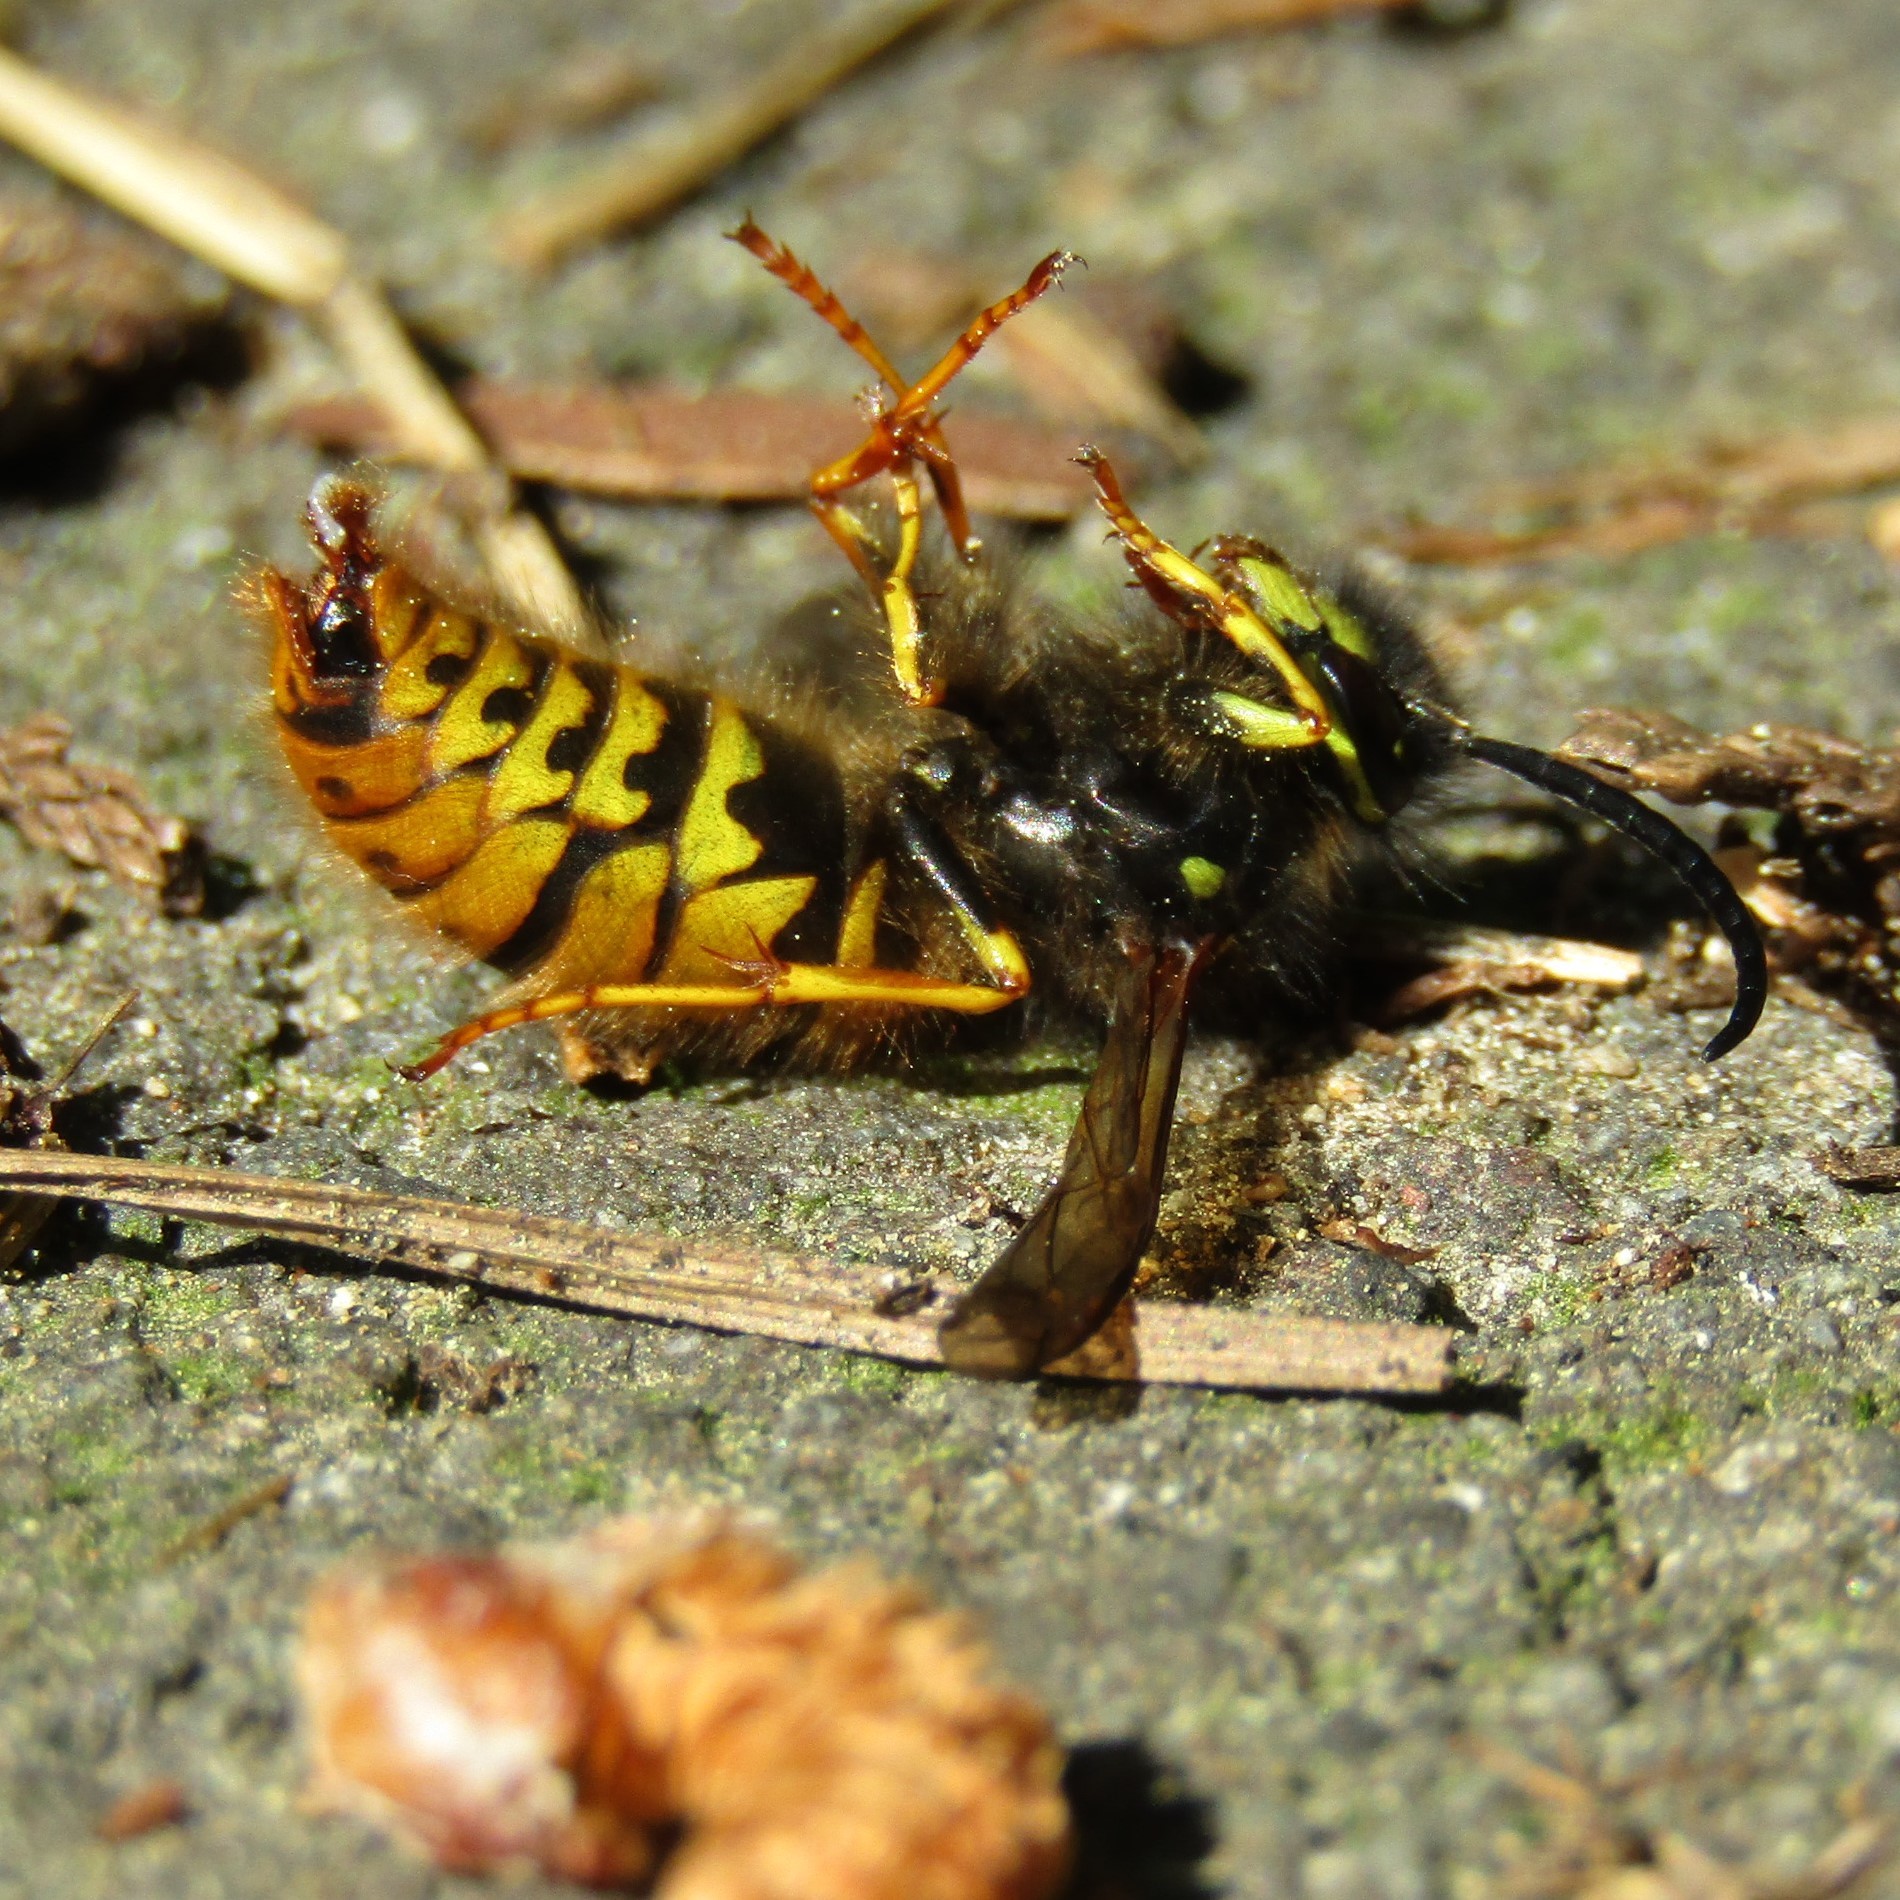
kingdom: Animalia
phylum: Arthropoda
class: Insecta
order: Hymenoptera
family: Vespidae
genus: Vespula
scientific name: Vespula vulgaris
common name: Common wasp
